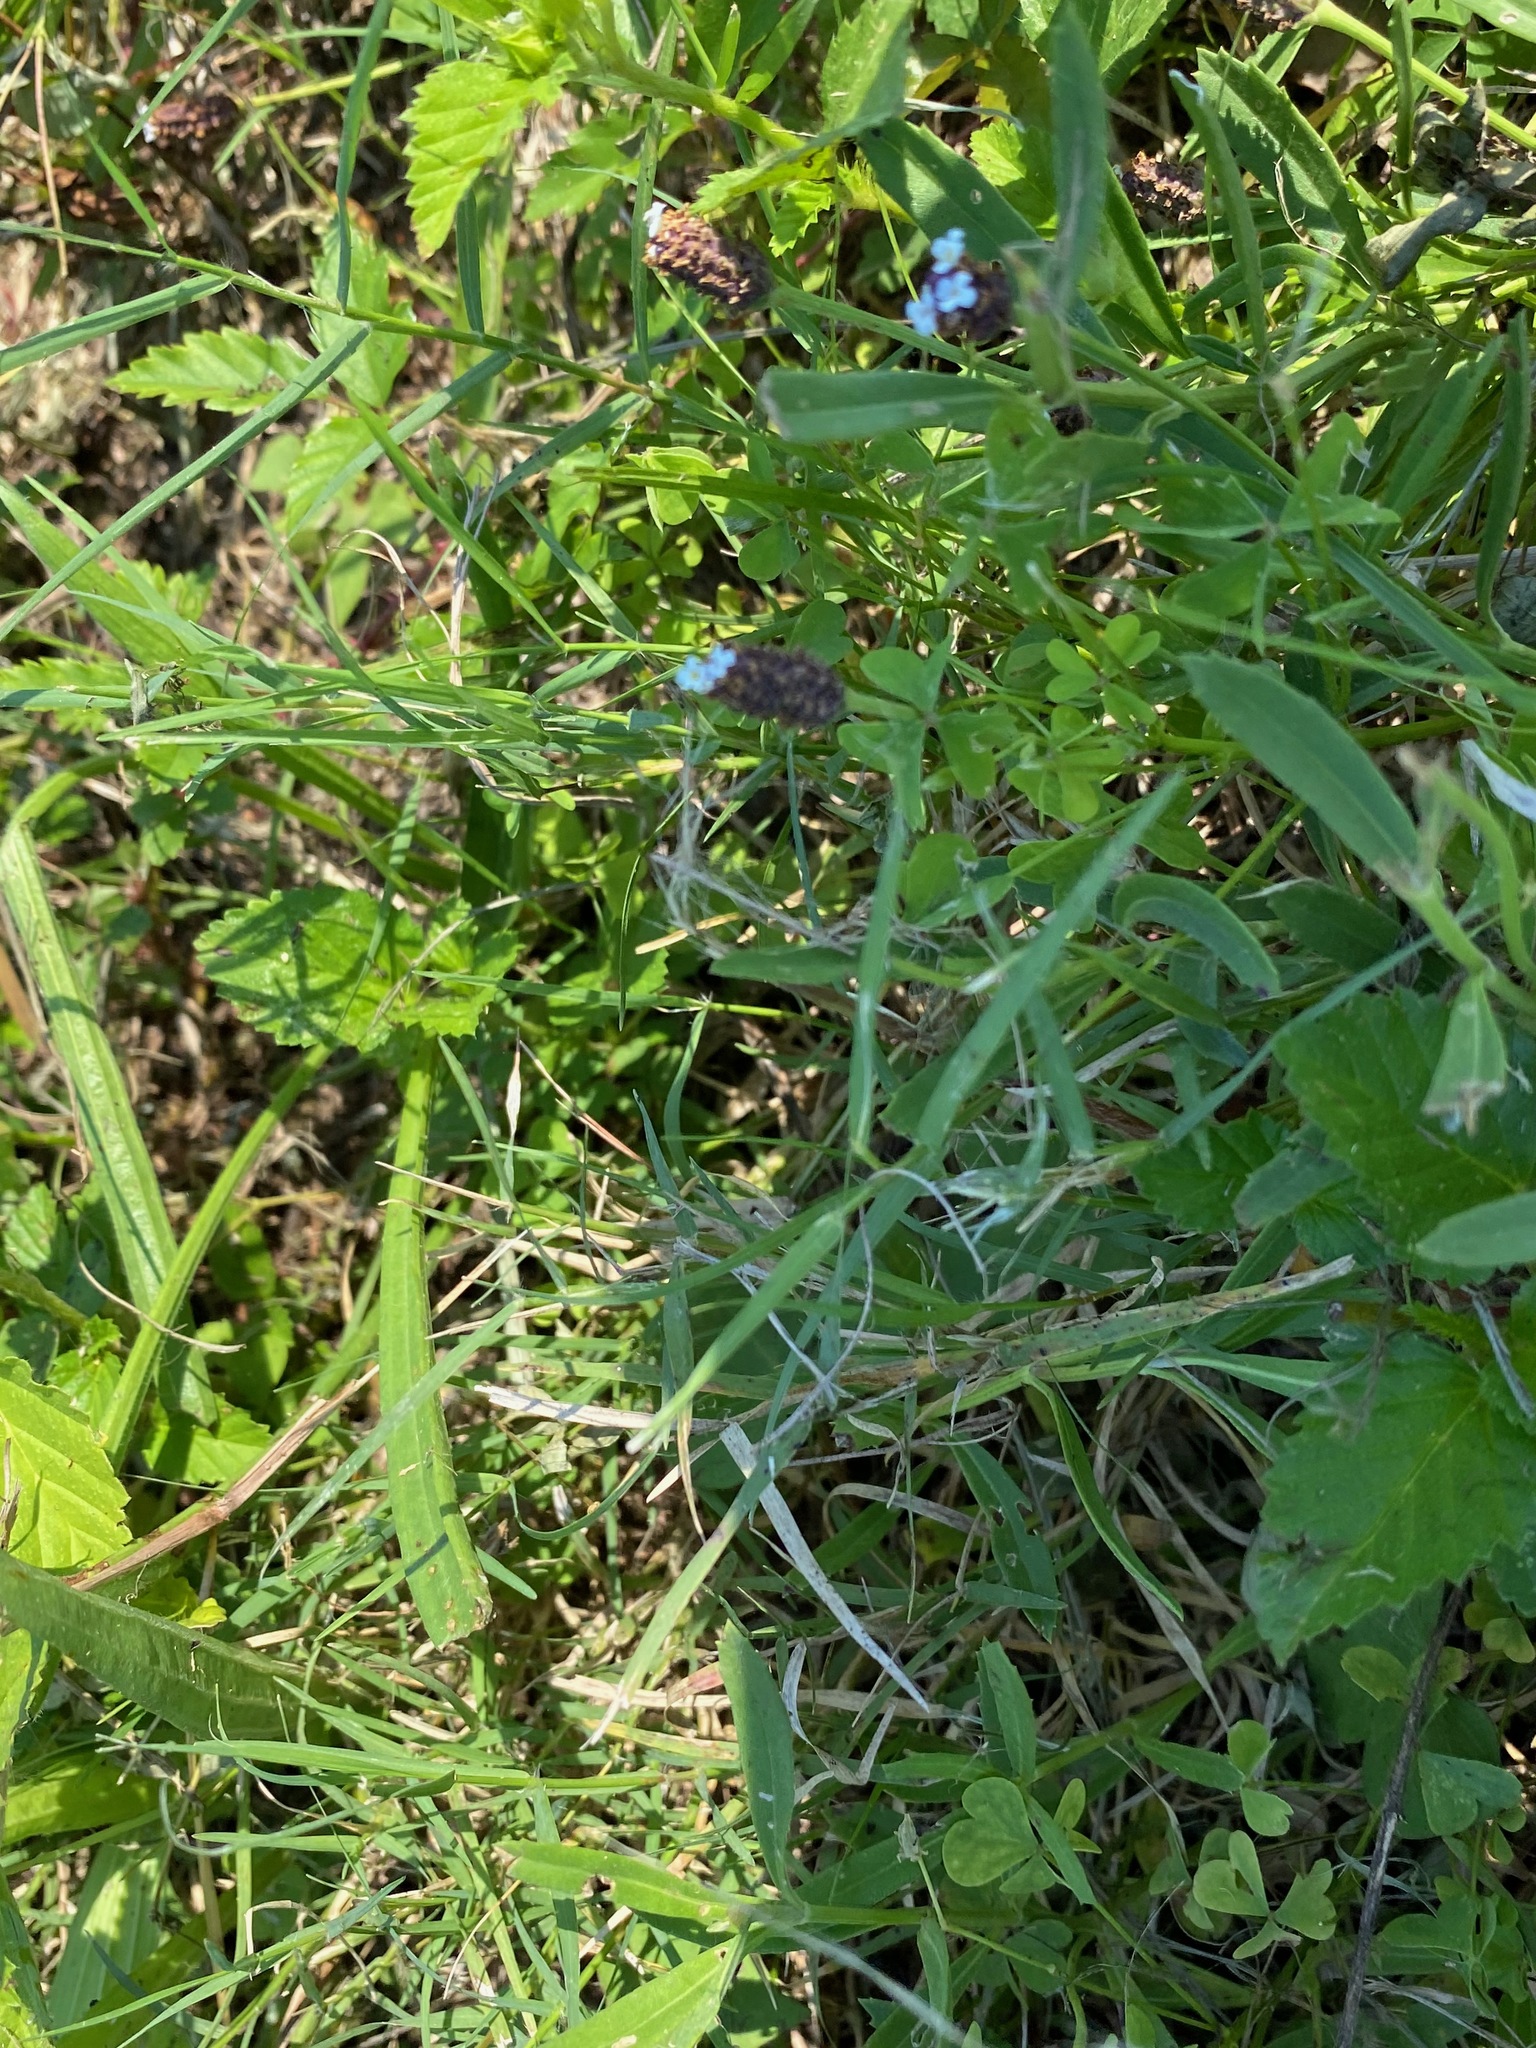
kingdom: Plantae
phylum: Tracheophyta
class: Magnoliopsida
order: Lamiales
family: Verbenaceae
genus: Phyla
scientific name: Phyla nodiflora
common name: Frogfruit
